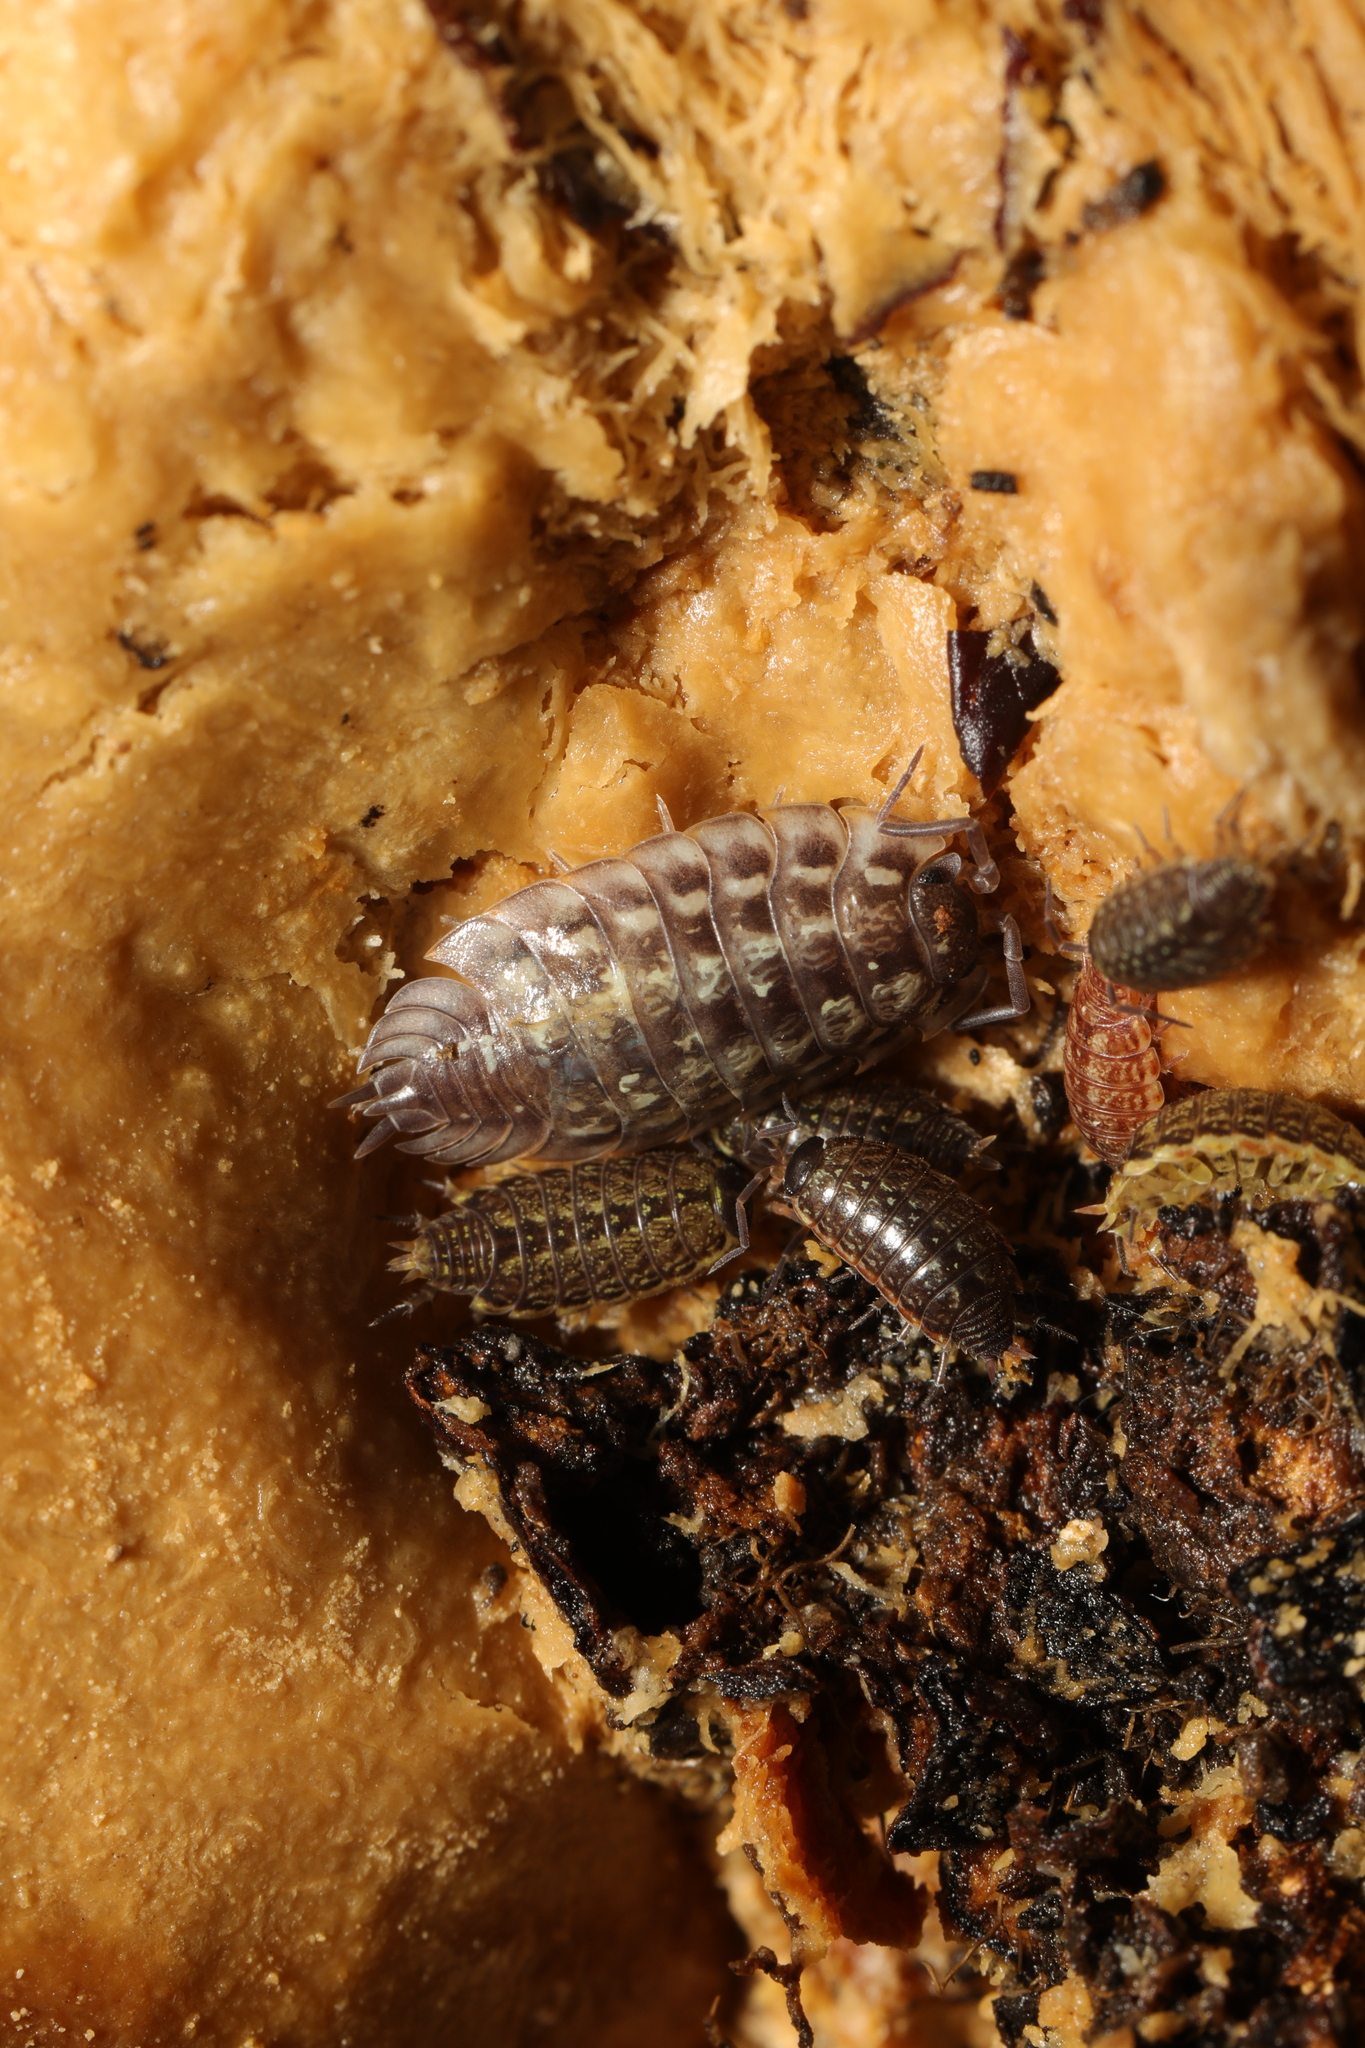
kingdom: Animalia
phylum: Arthropoda
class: Malacostraca
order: Isopoda
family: Oniscidae
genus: Oniscus
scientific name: Oniscus asellus
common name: Common shiny woodlouse
